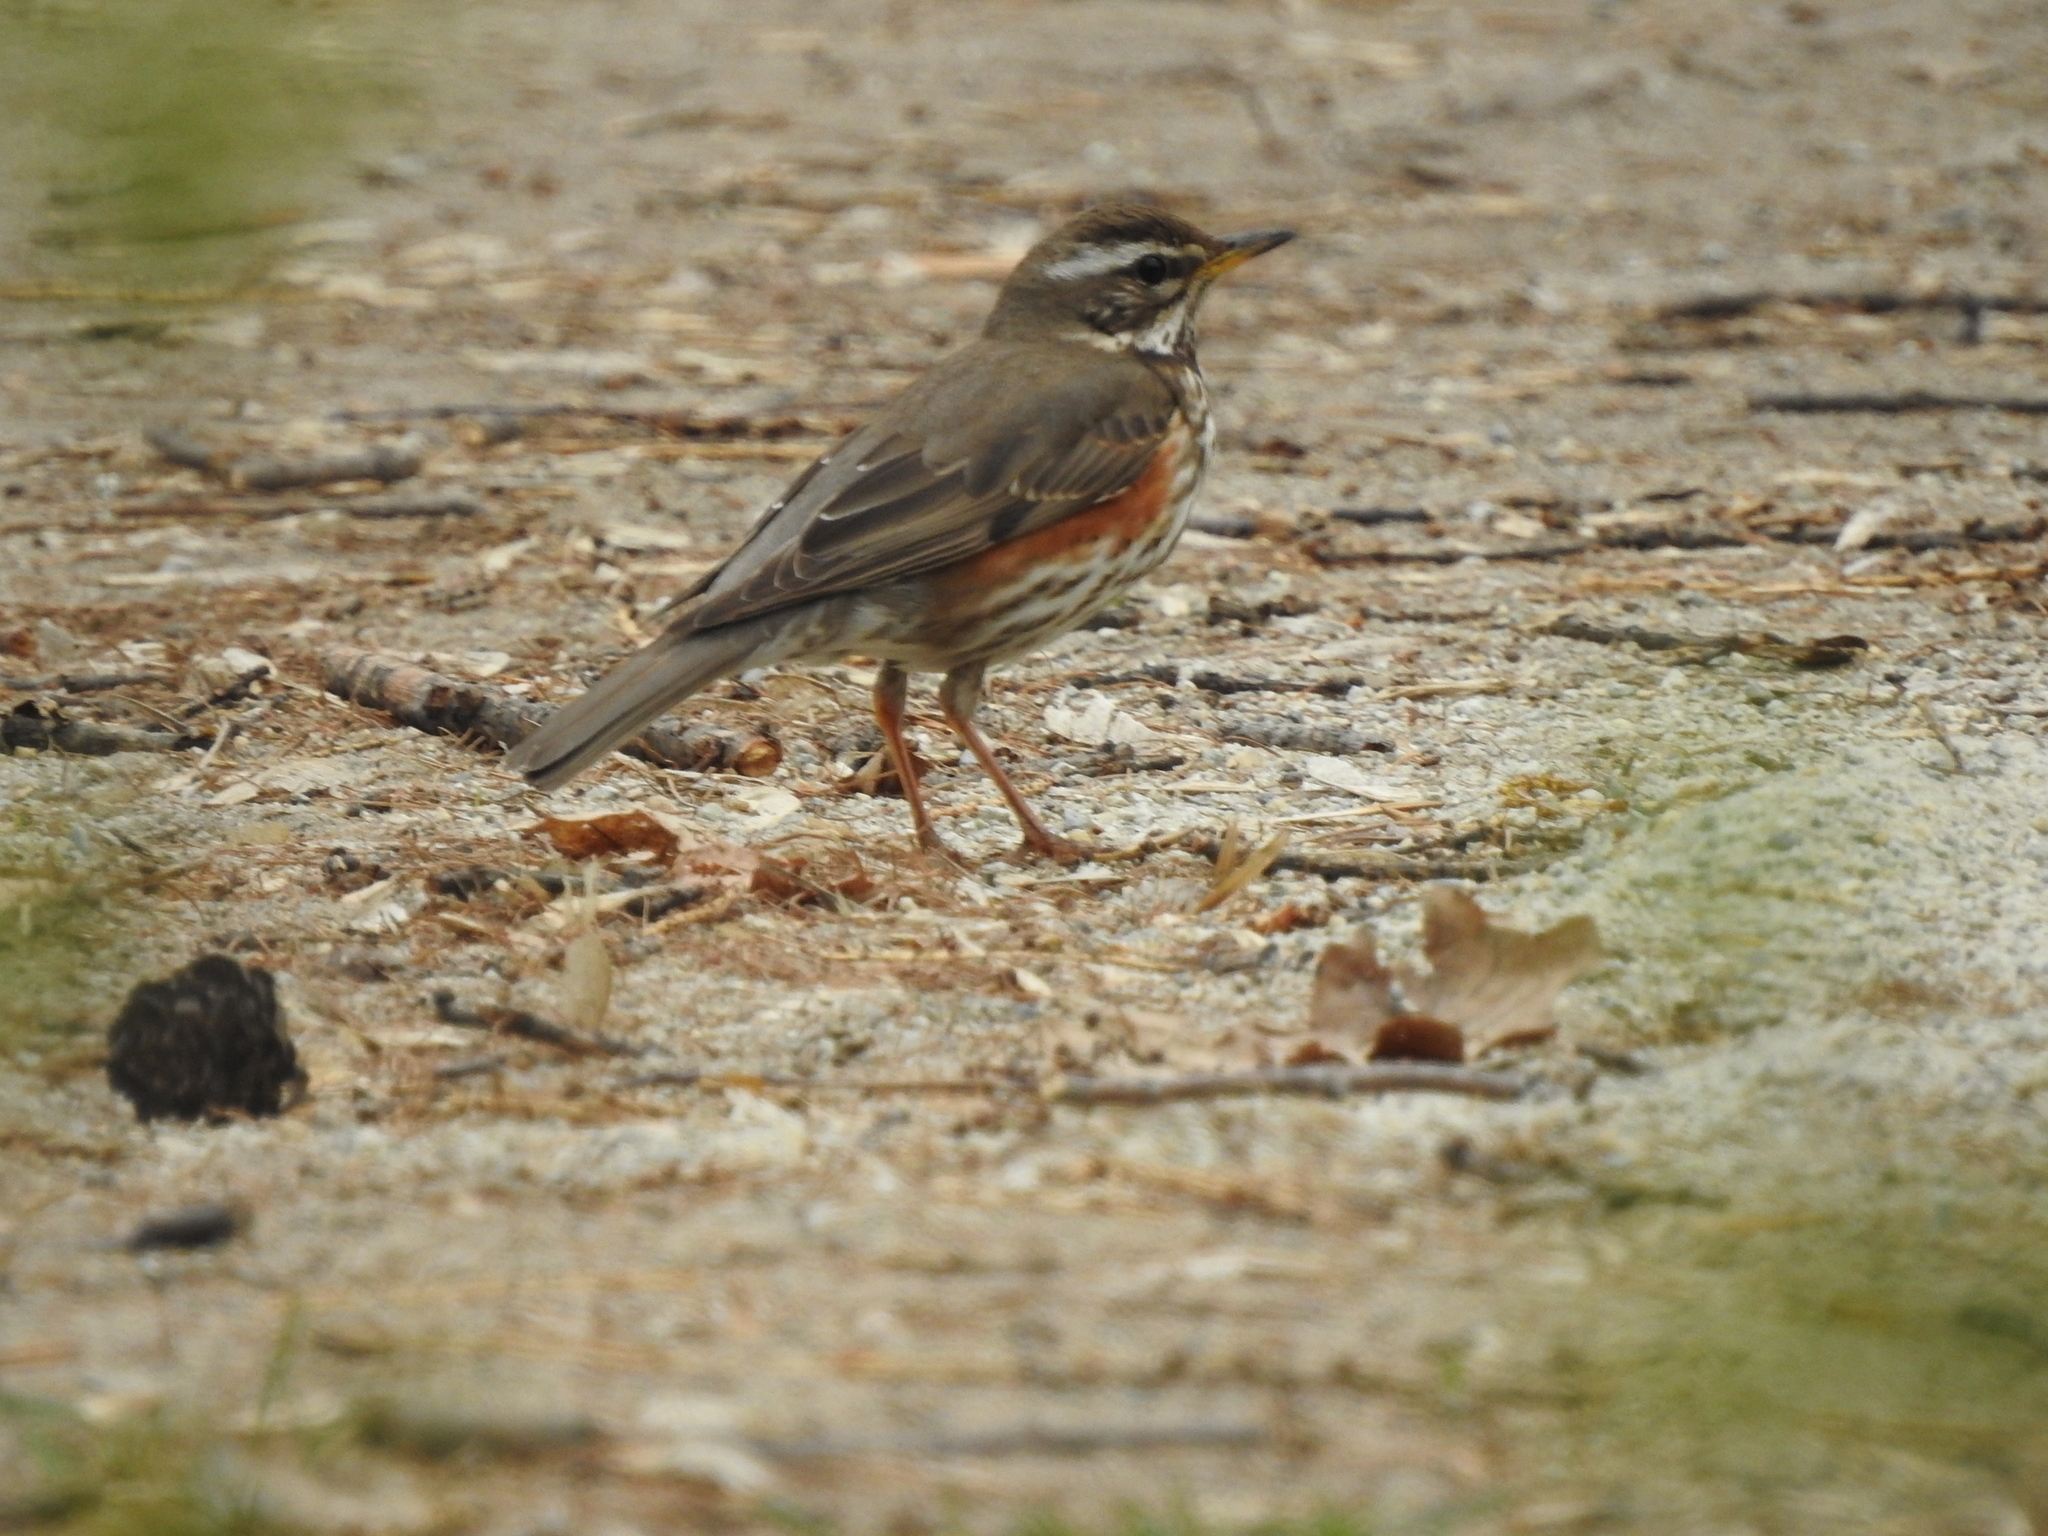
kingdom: Animalia
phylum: Chordata
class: Aves
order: Passeriformes
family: Turdidae
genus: Turdus
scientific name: Turdus iliacus
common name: Redwing
